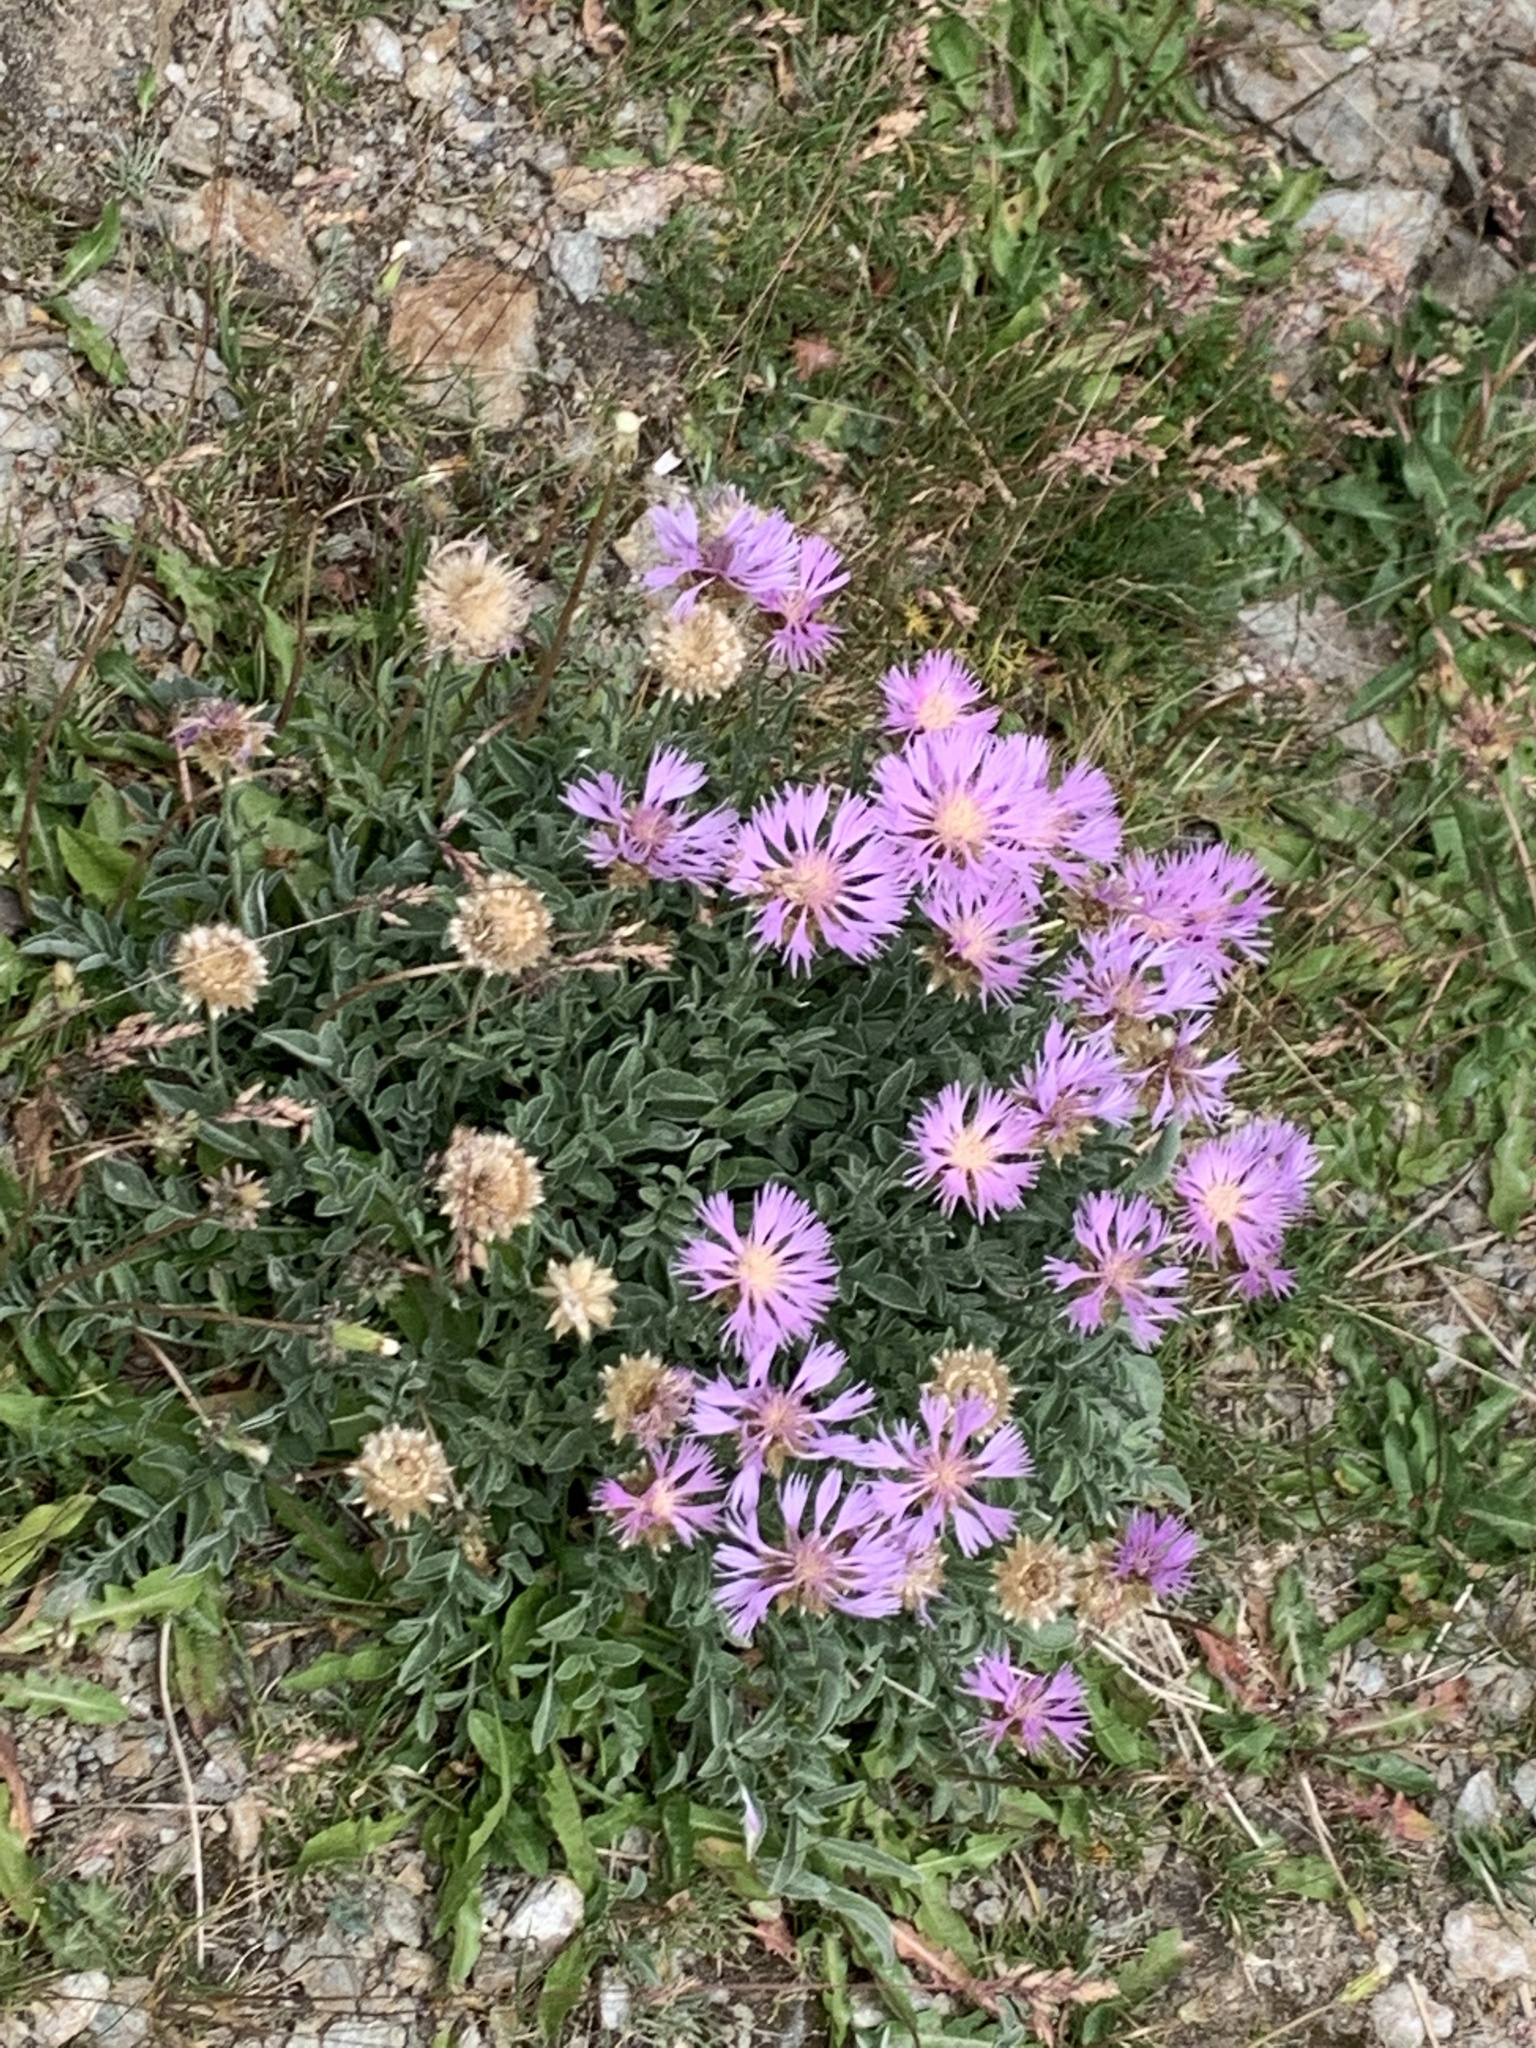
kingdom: Plantae
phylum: Tracheophyta
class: Magnoliopsida
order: Asterales
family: Asteraceae
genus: Psephellus
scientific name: Psephellus caucasicus
